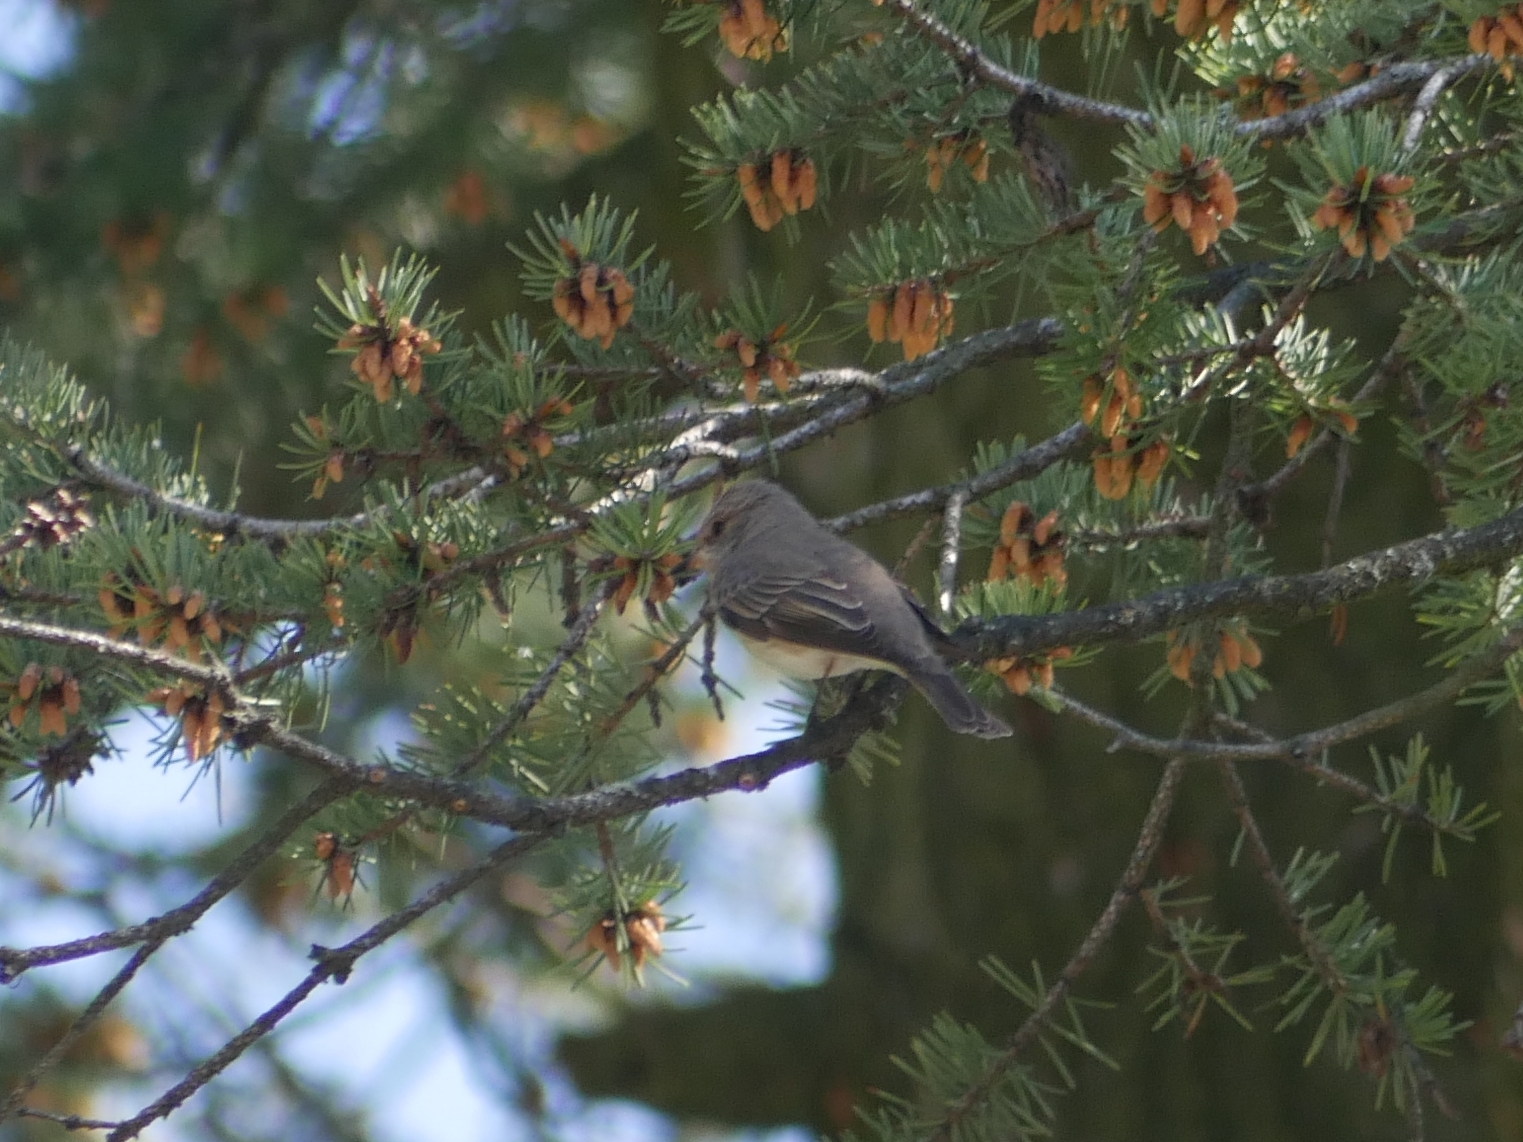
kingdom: Animalia
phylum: Chordata
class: Aves
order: Passeriformes
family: Muscicapidae
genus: Muscicapa
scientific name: Muscicapa striata
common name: Spotted flycatcher
